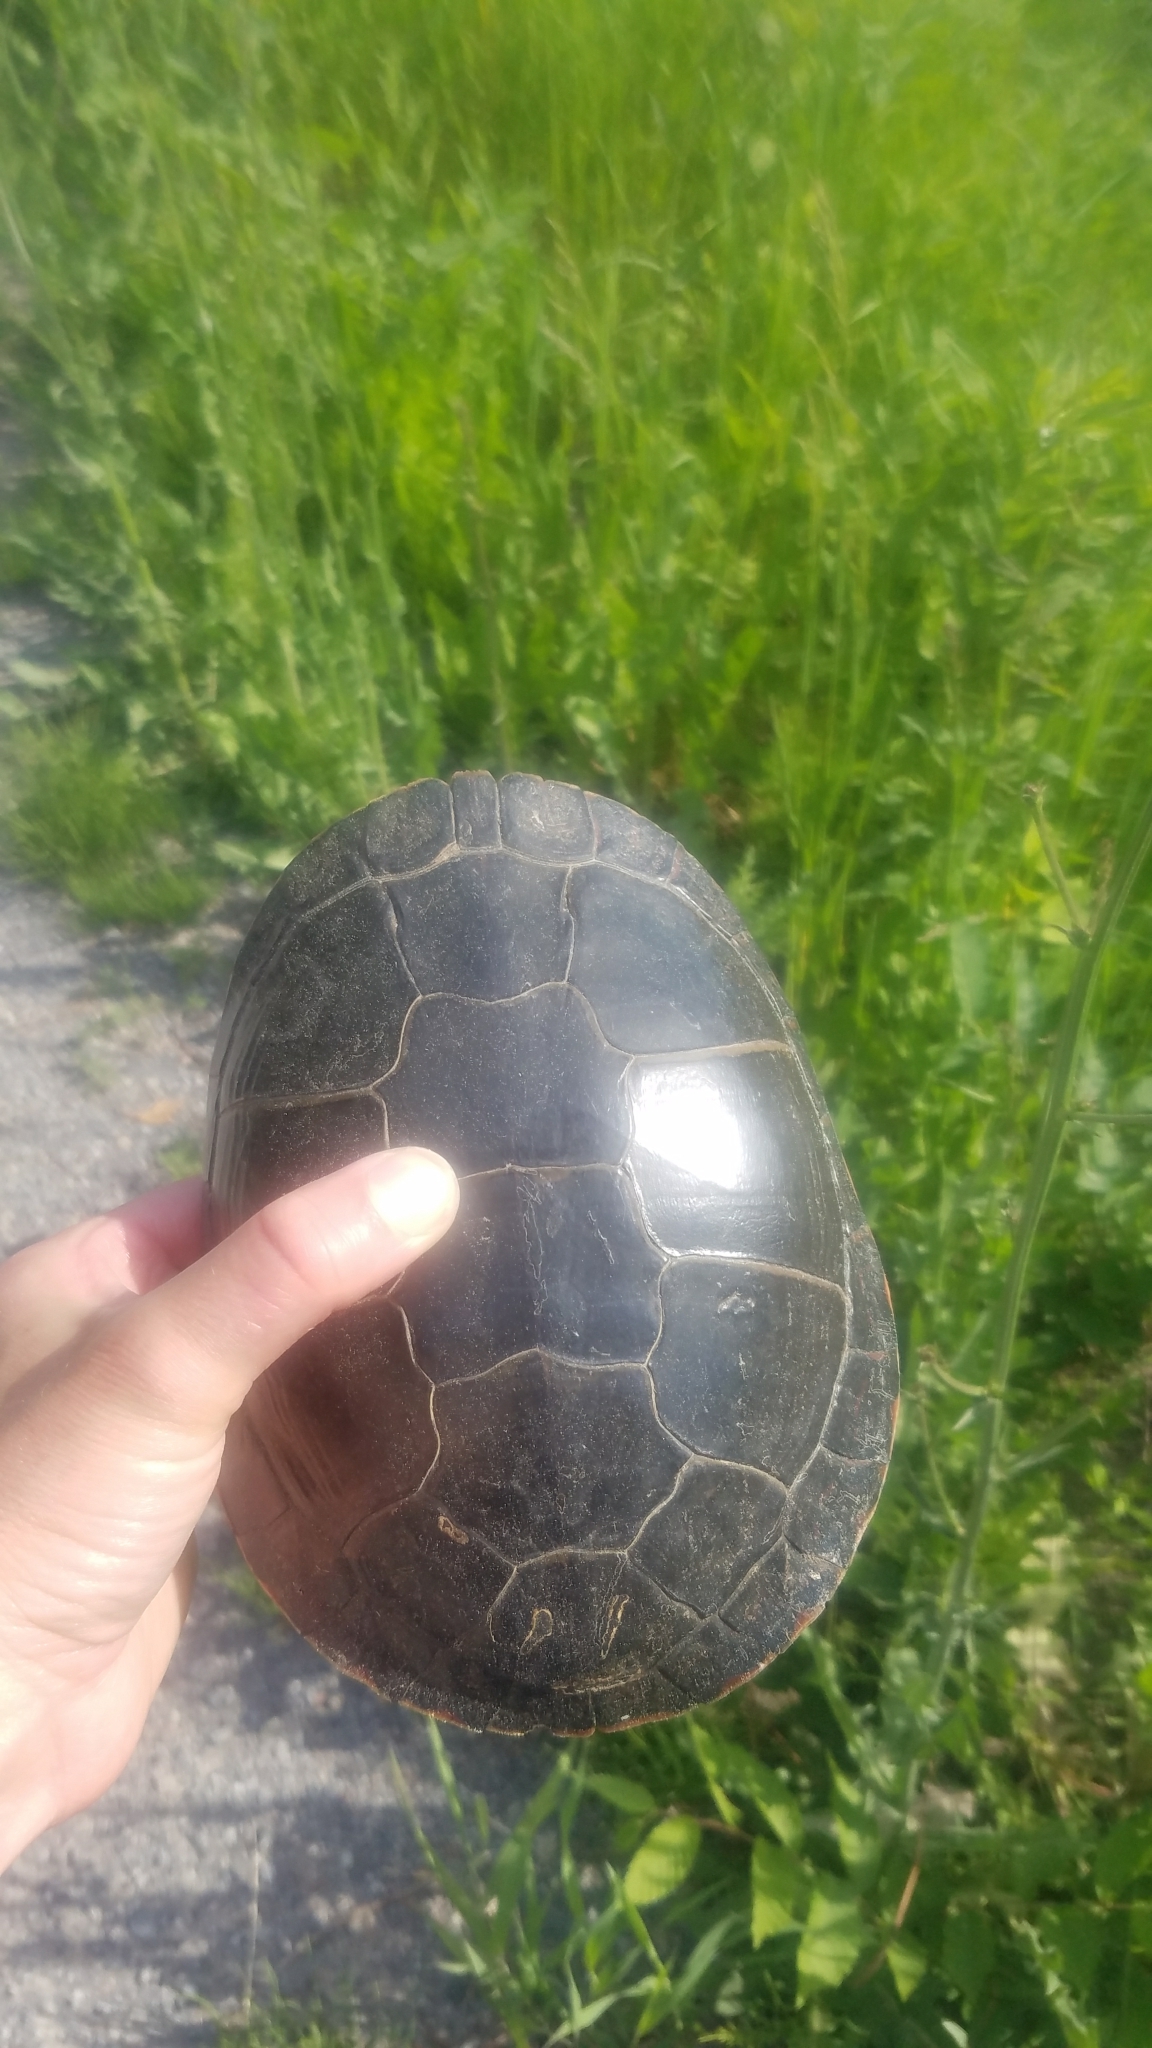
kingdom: Animalia
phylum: Chordata
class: Testudines
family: Emydidae
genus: Chrysemys
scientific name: Chrysemys picta
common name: Painted turtle
